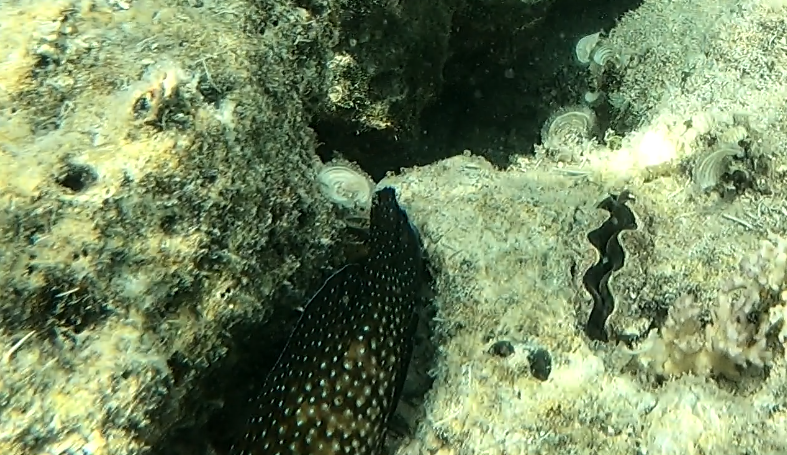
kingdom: Animalia
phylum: Chordata
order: Perciformes
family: Serranidae
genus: Cephalopholis
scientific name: Cephalopholis cyanostigma
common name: Bluespotted hind
